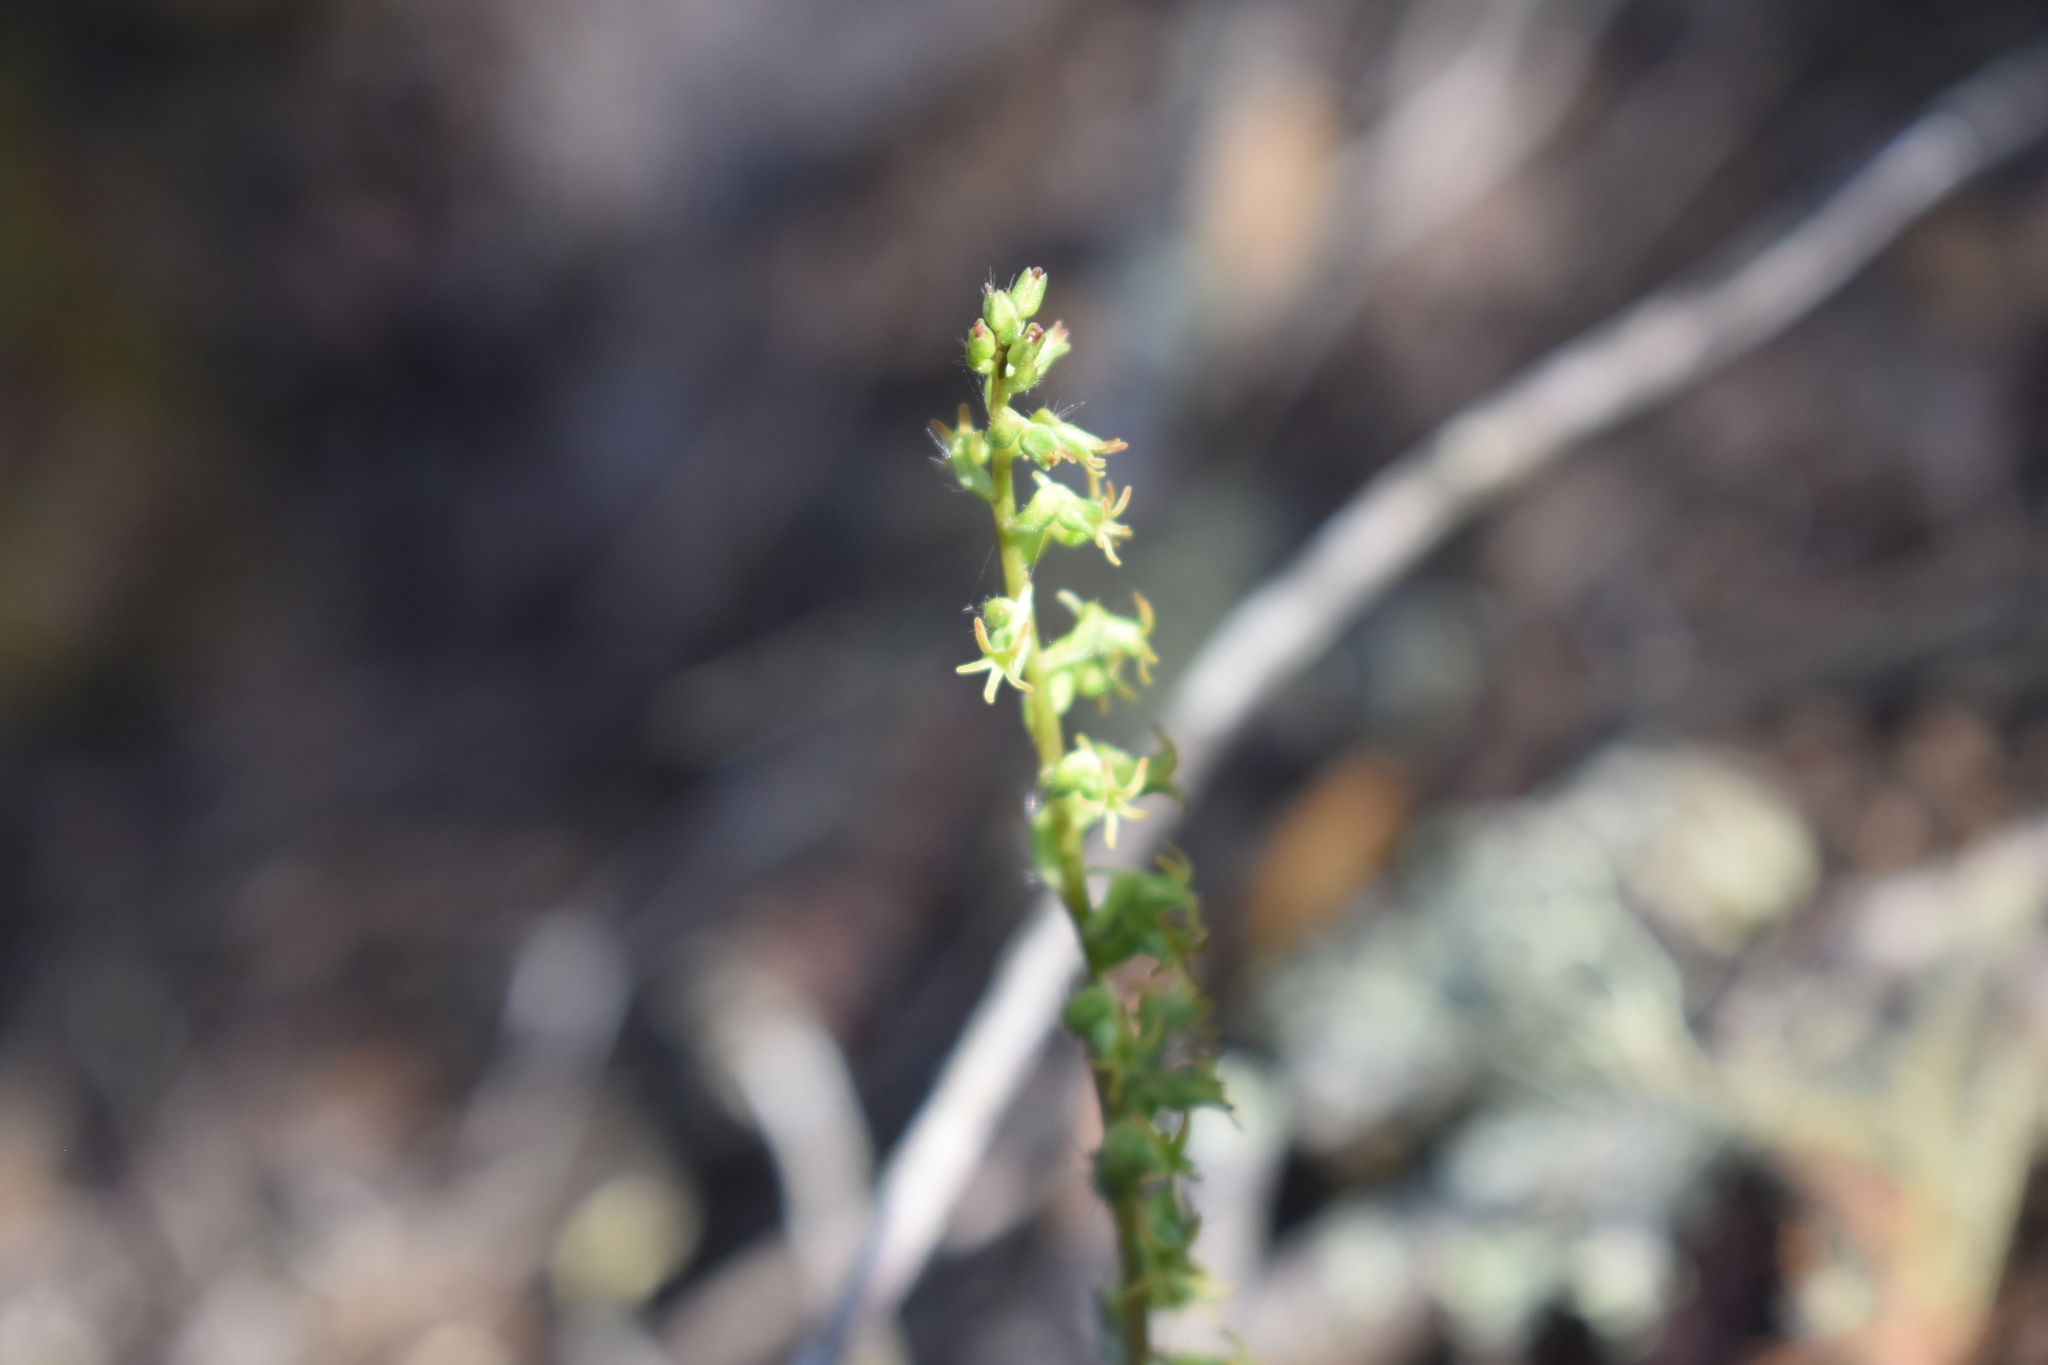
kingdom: Plantae
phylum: Tracheophyta
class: Liliopsida
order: Asparagales
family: Orchidaceae
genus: Holothrix
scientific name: Holothrix villosa
